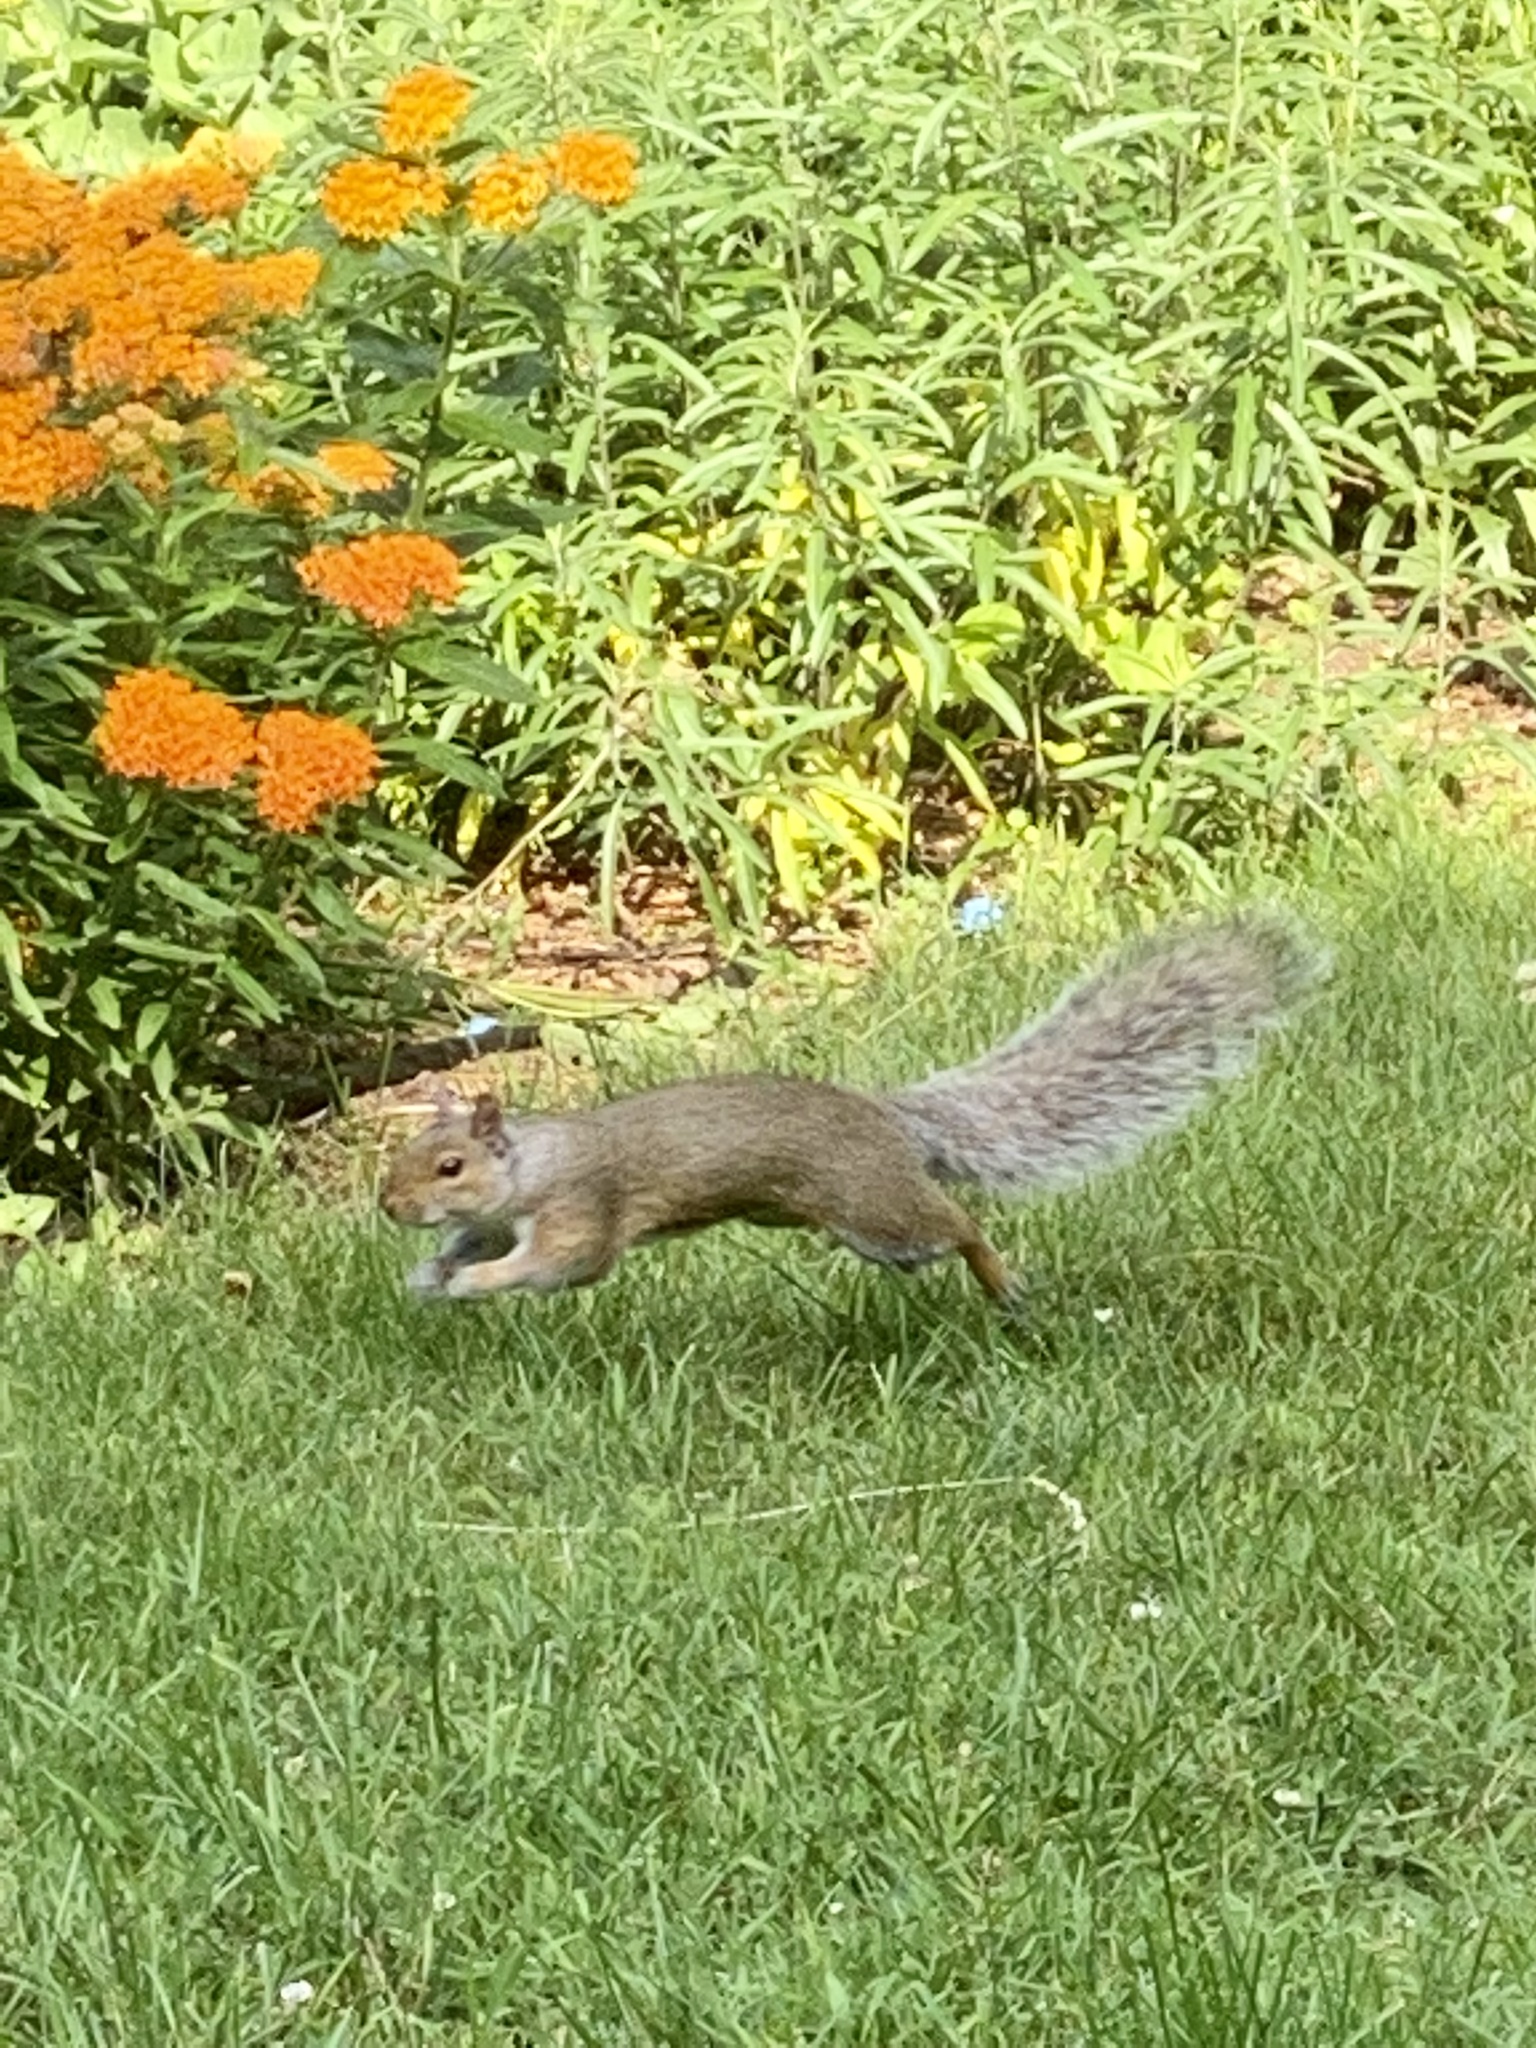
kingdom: Animalia
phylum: Chordata
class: Mammalia
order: Rodentia
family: Sciuridae
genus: Sciurus
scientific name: Sciurus carolinensis
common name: Eastern gray squirrel
